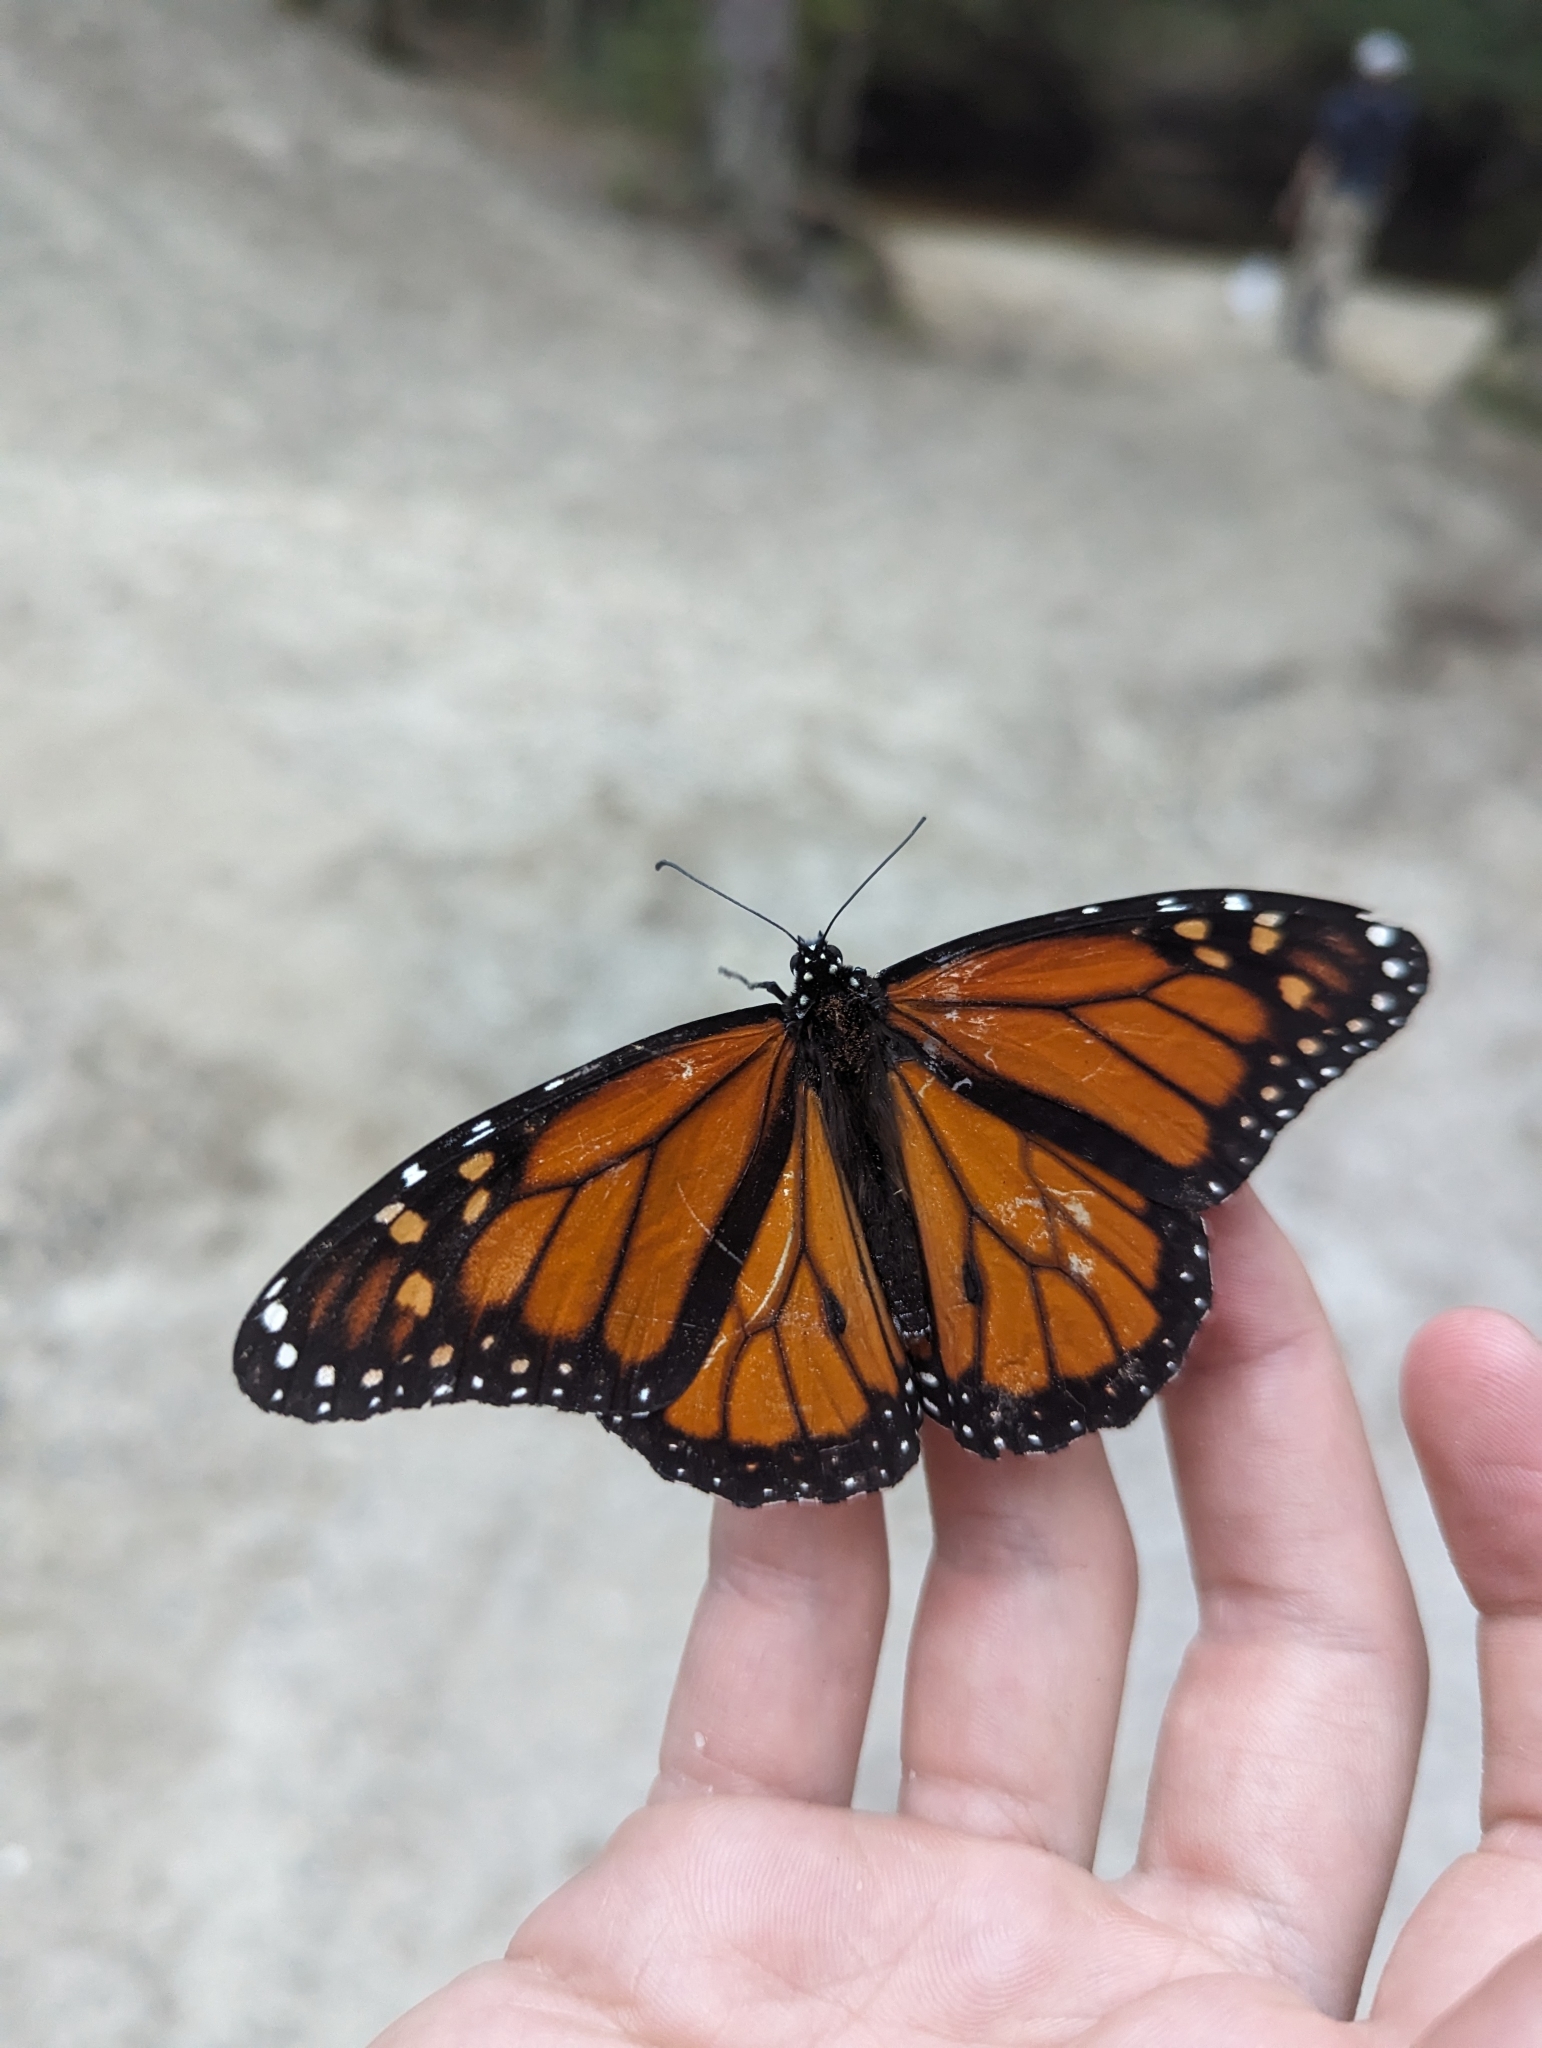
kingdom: Animalia
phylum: Arthropoda
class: Insecta
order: Lepidoptera
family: Nymphalidae
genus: Danaus
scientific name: Danaus plexippus
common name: Monarch
